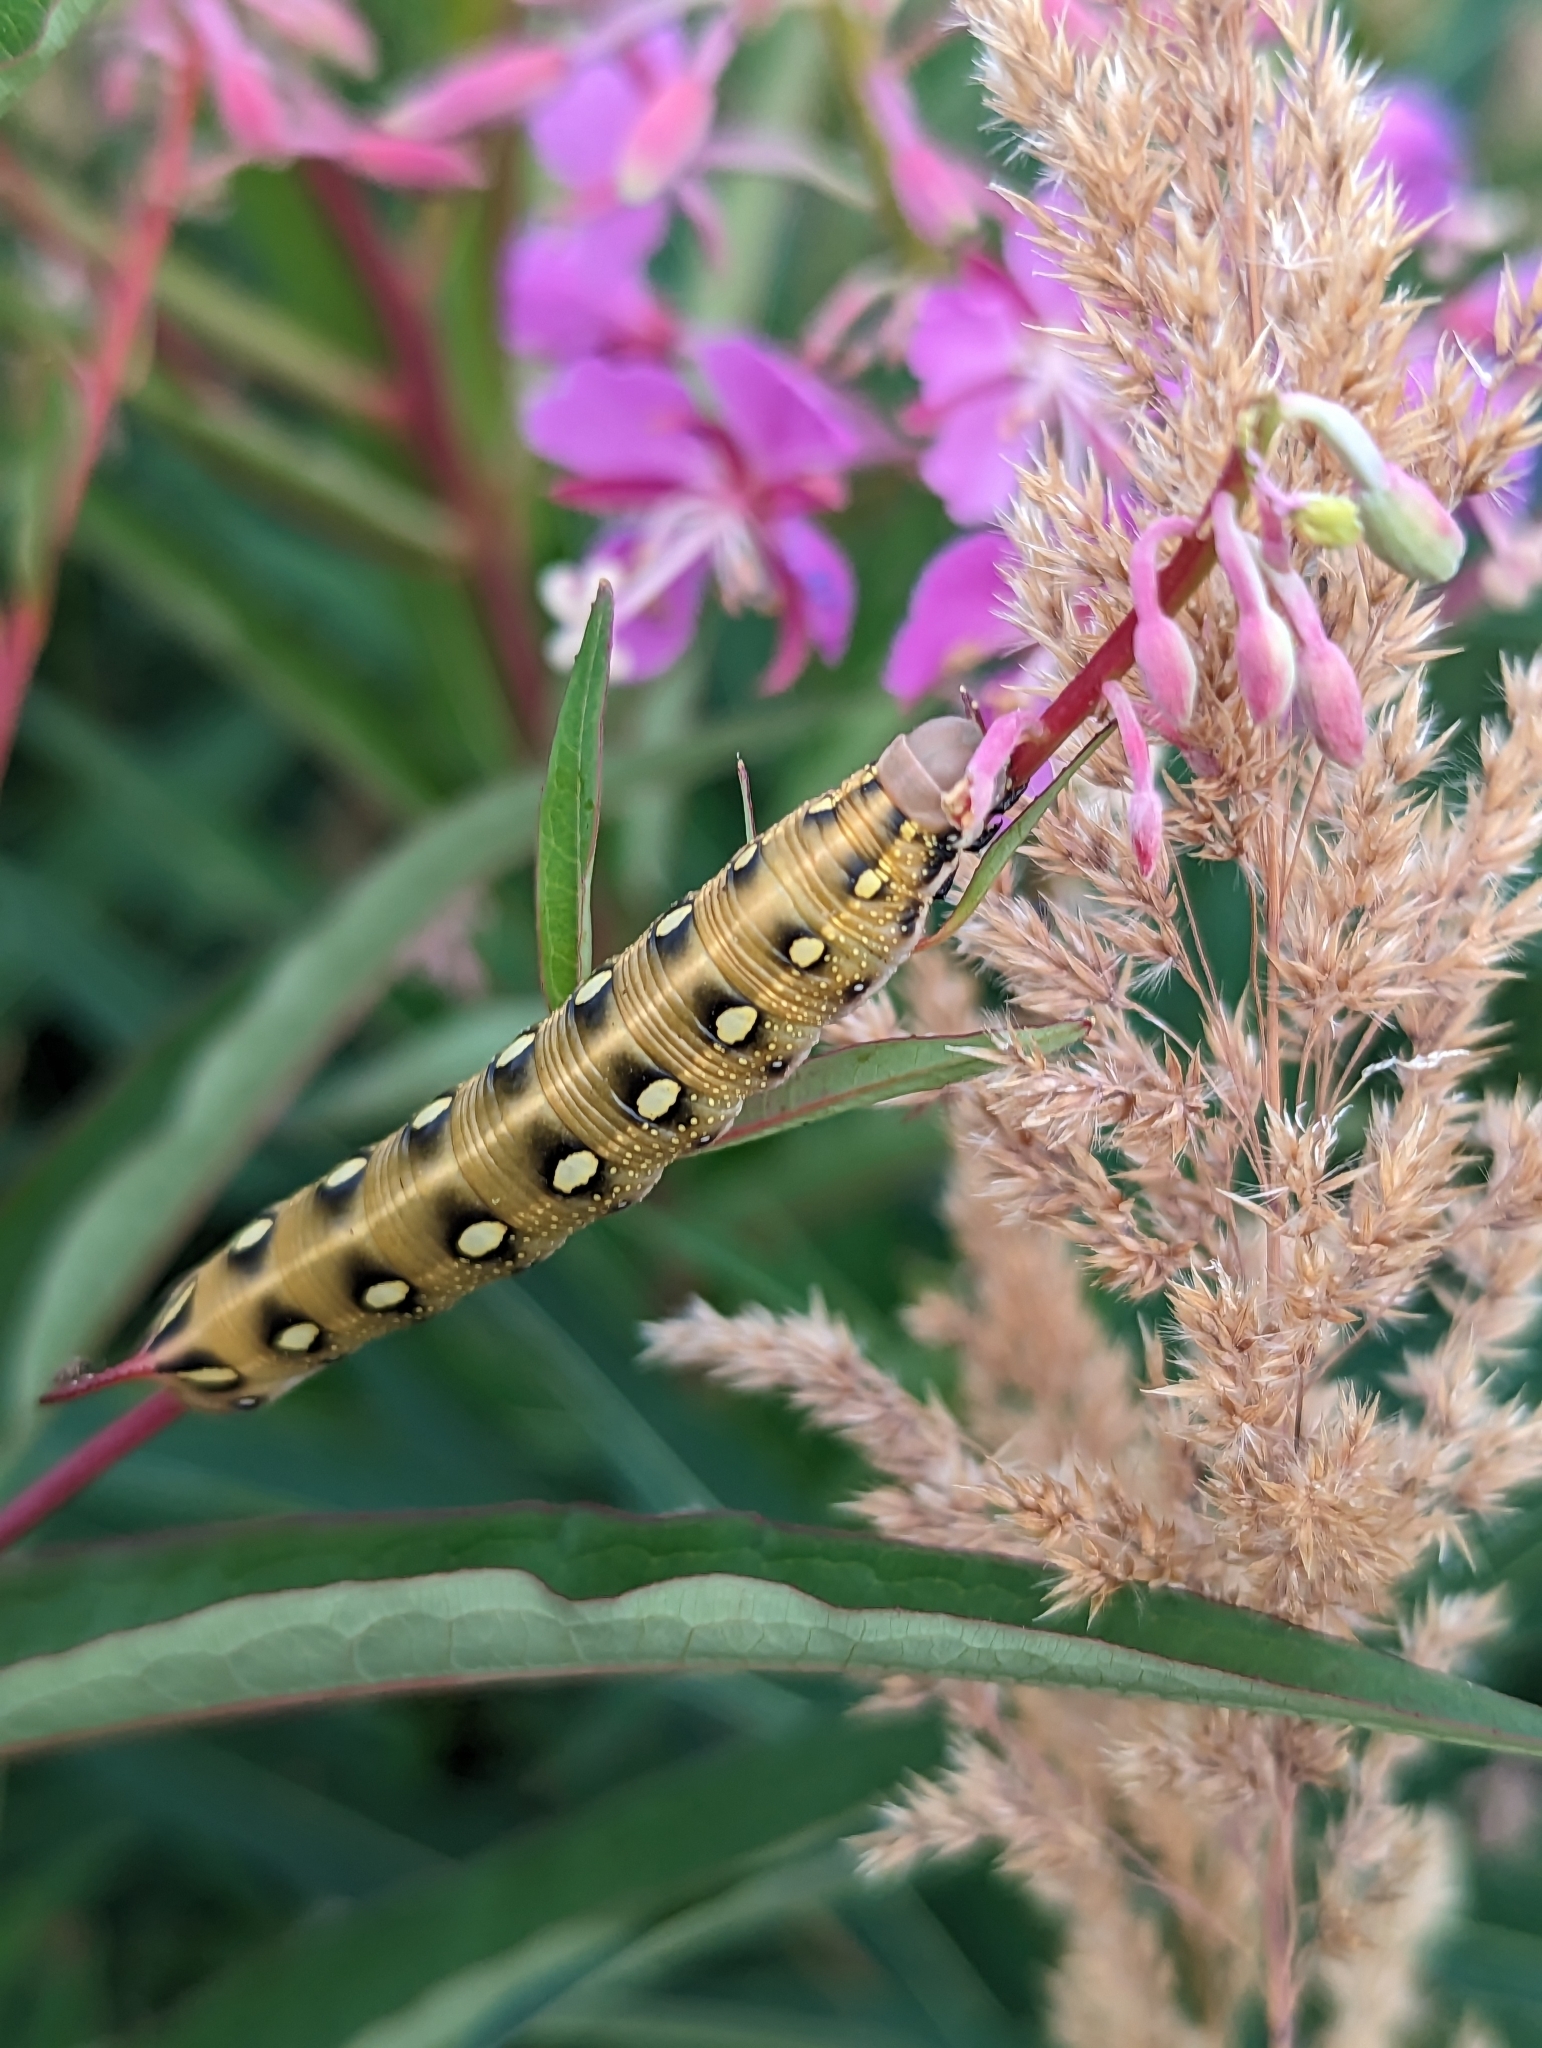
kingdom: Animalia
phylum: Arthropoda
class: Insecta
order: Lepidoptera
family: Sphingidae
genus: Hyles
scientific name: Hyles gallii
